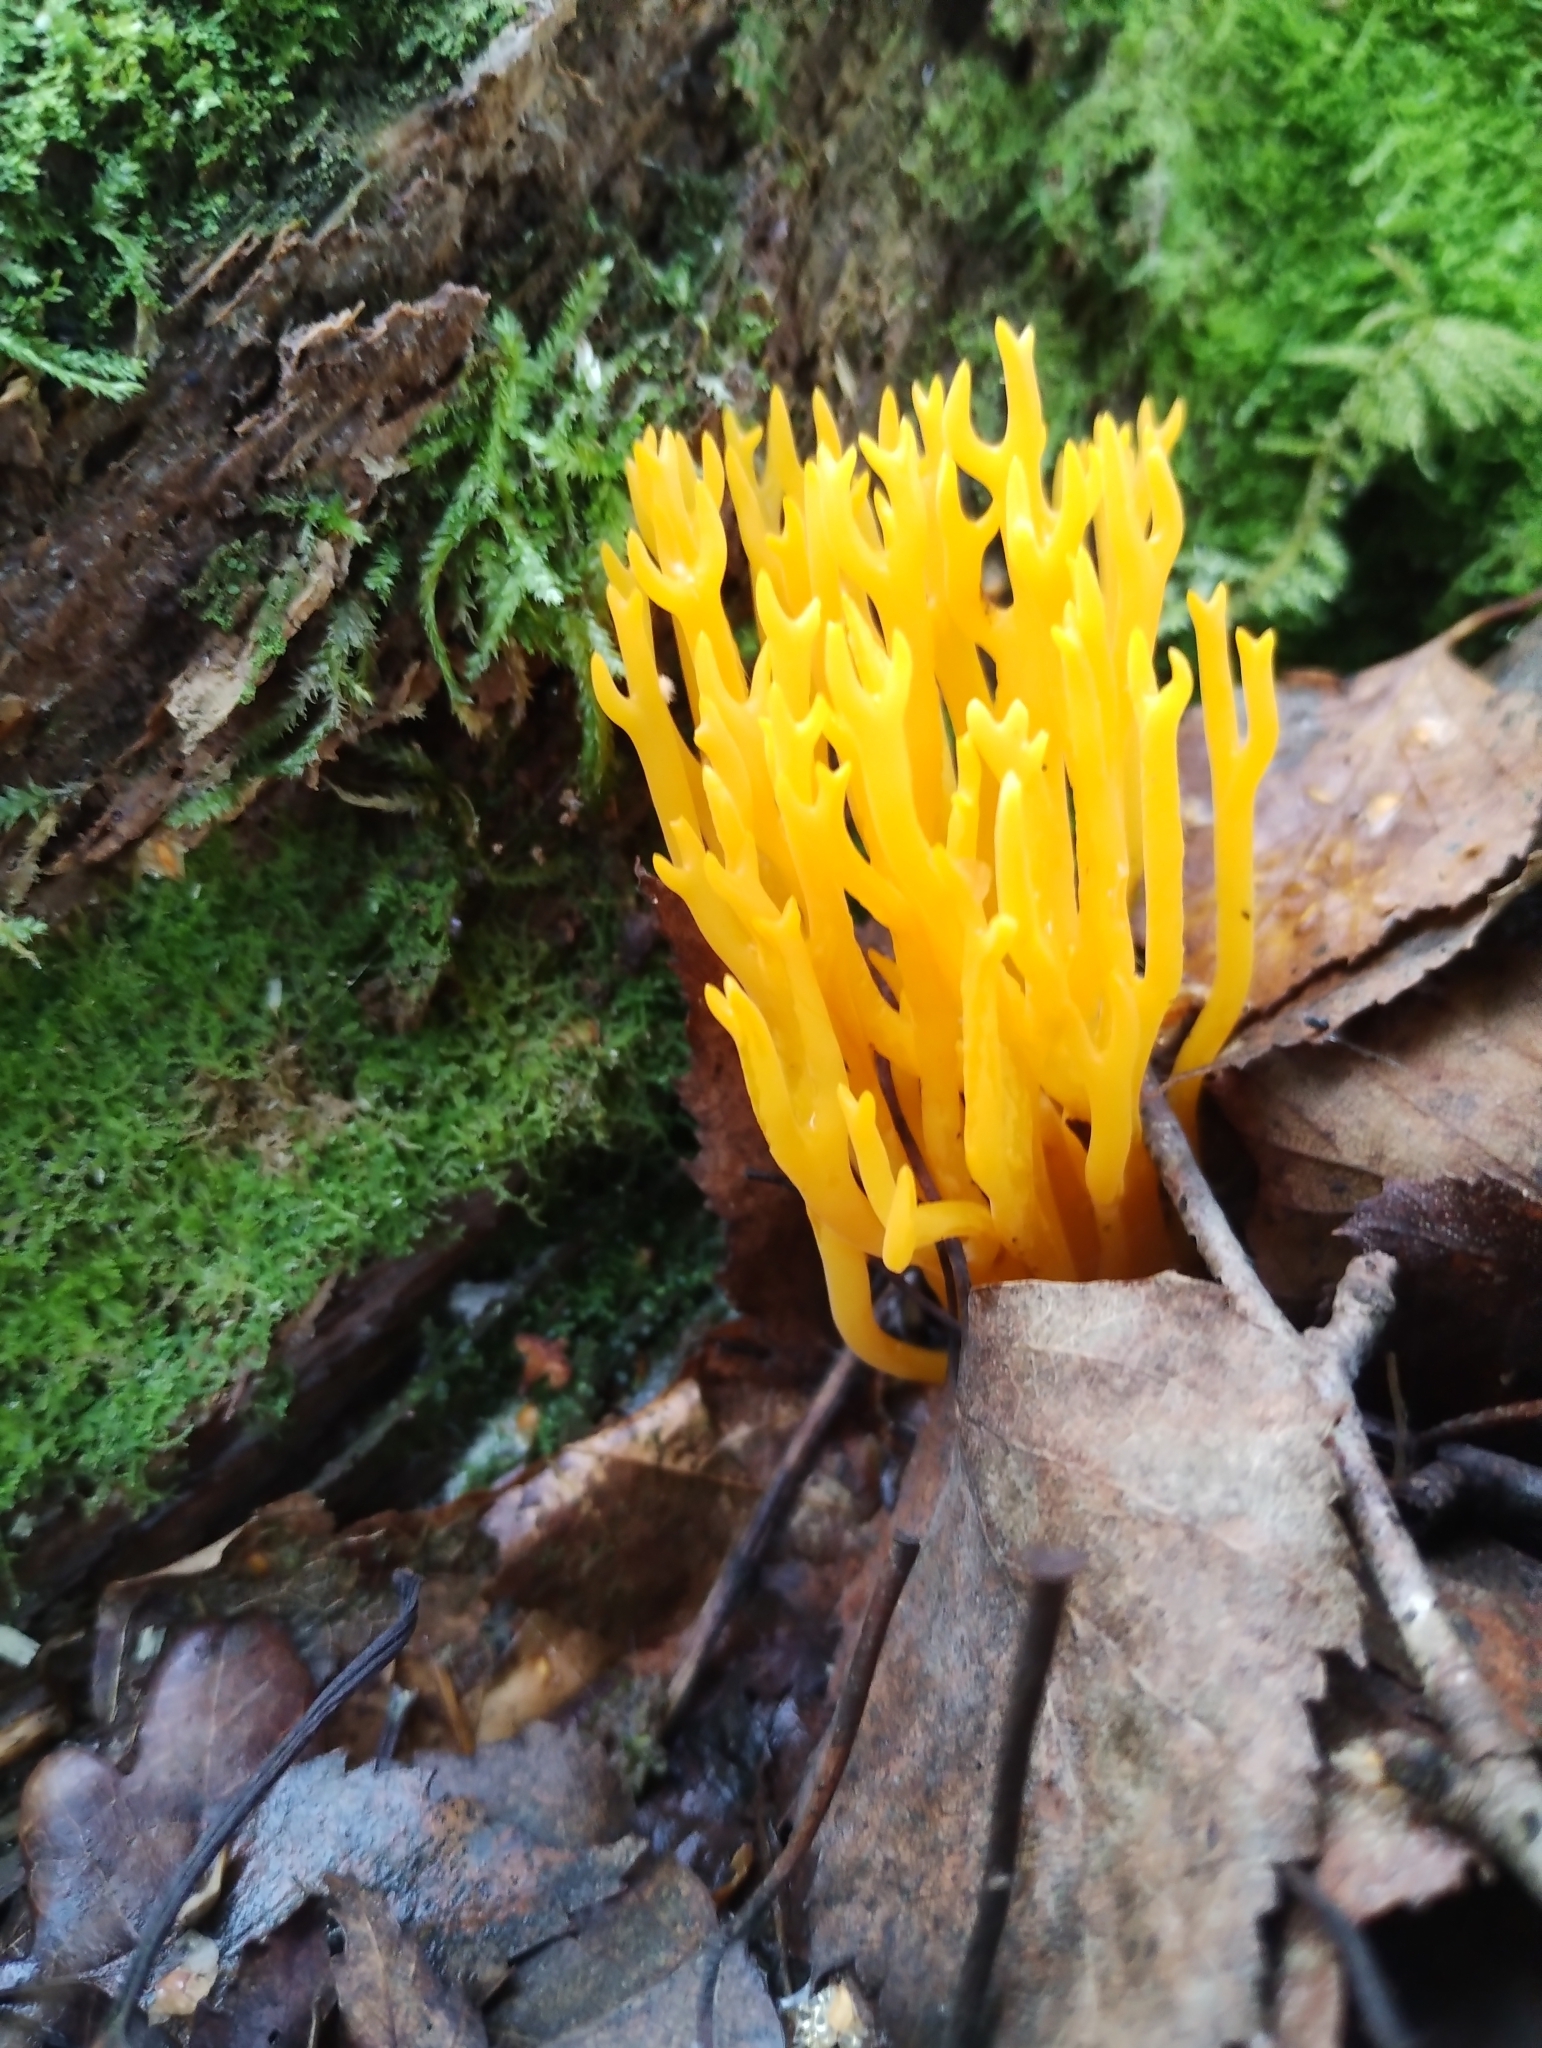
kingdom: Fungi
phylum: Basidiomycota
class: Dacrymycetes
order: Dacrymycetales
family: Dacrymycetaceae
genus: Calocera
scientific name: Calocera viscosa
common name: Yellow stagshorn
